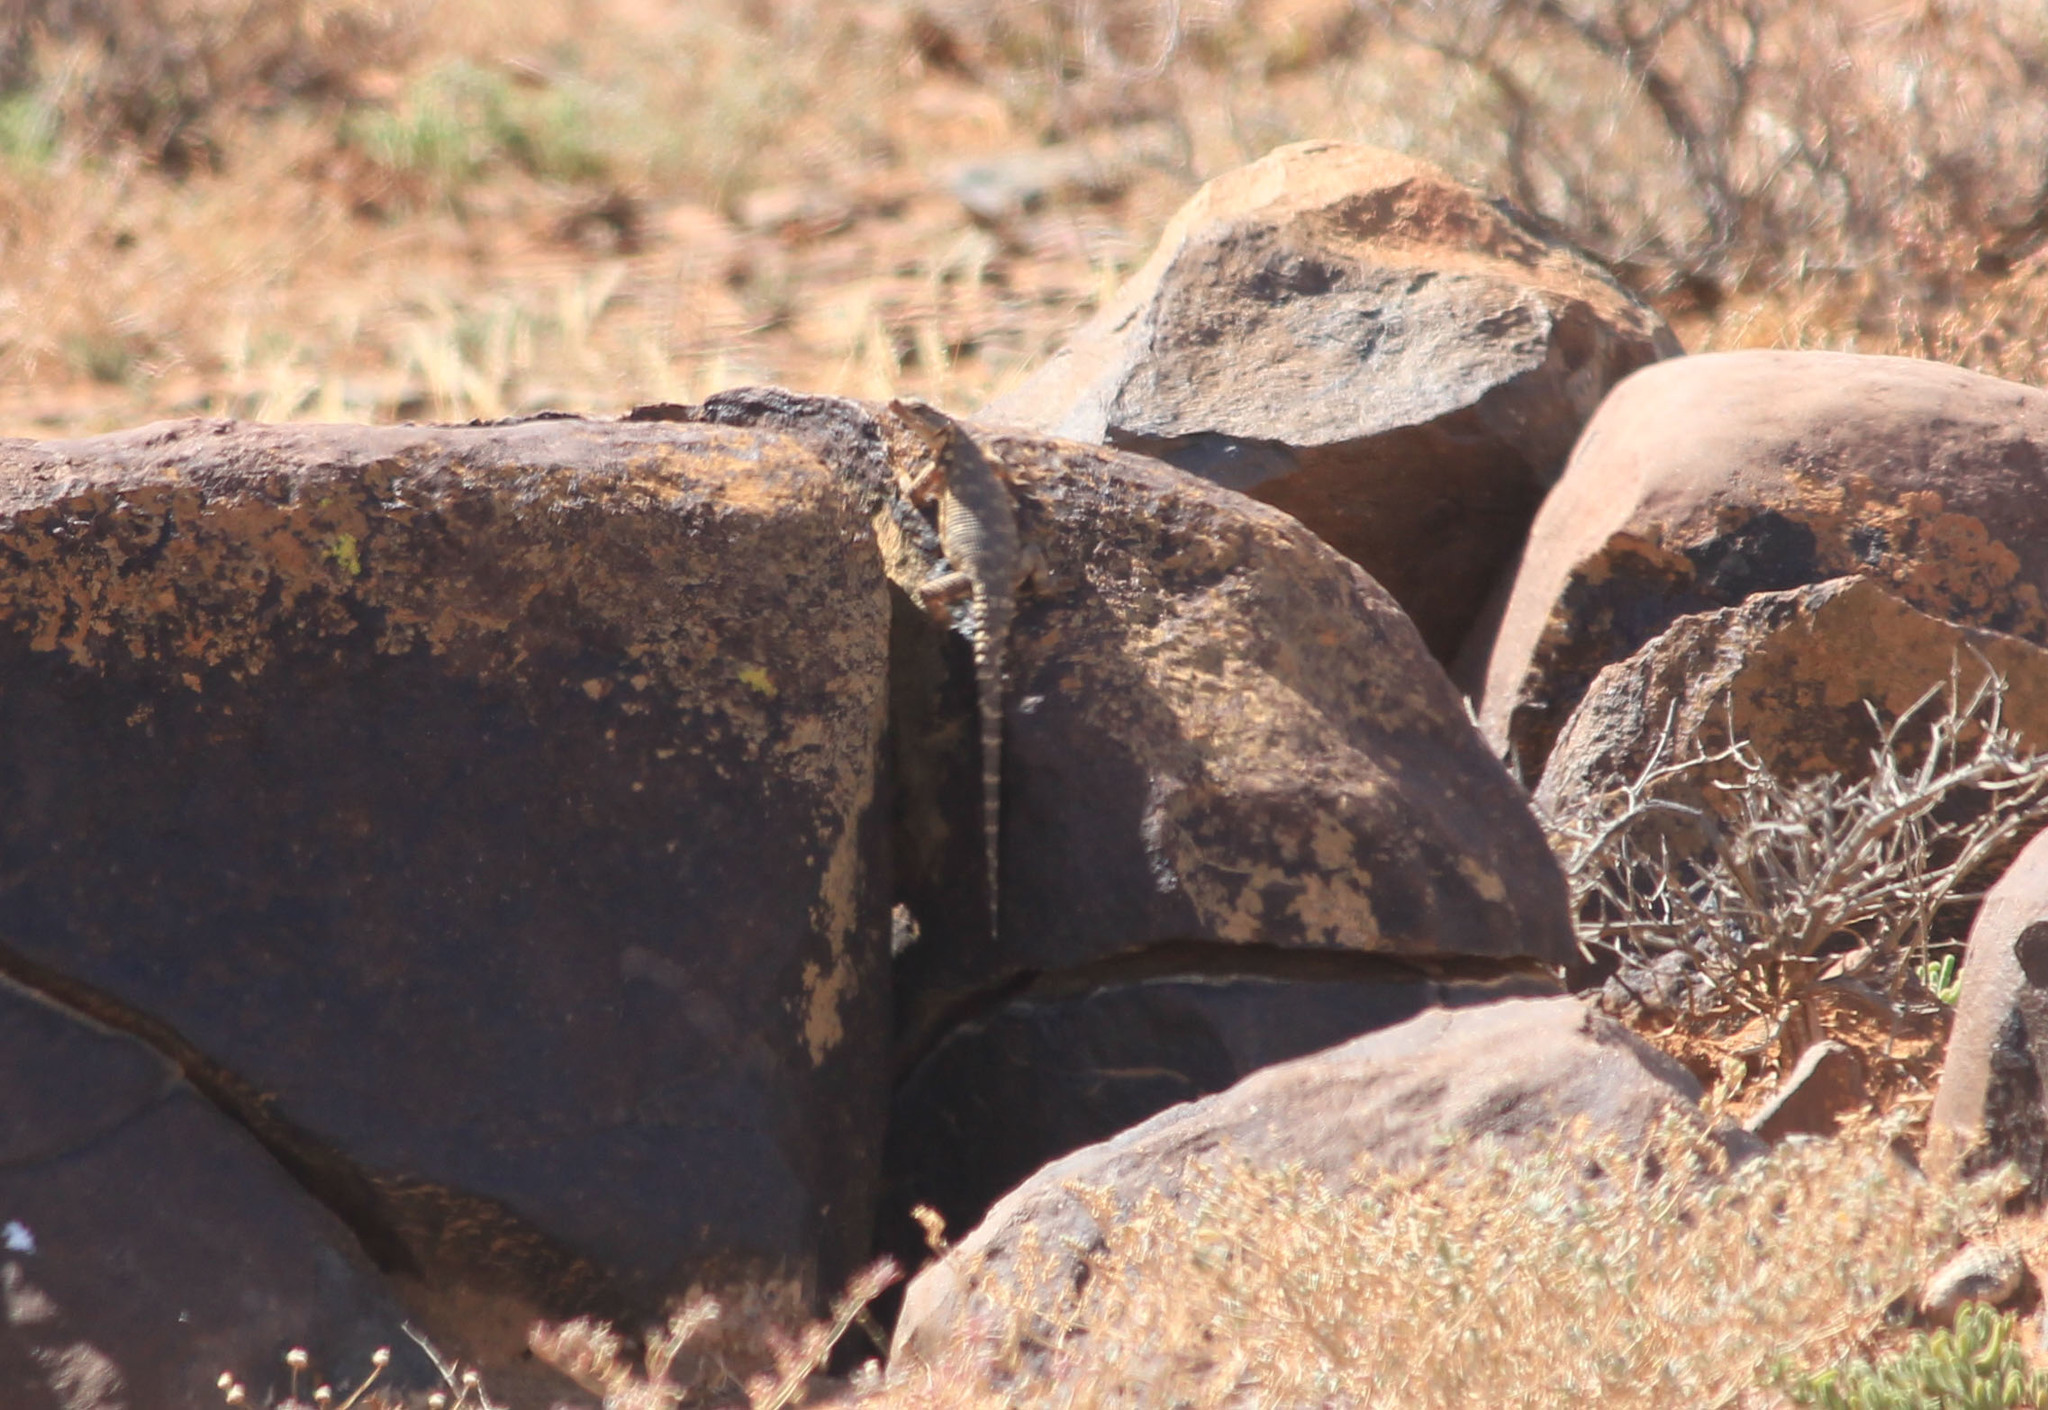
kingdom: Animalia
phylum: Chordata
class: Squamata
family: Cordylidae
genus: Karusasaurus
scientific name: Karusasaurus polyzonus
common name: Karoo girdled lizard
